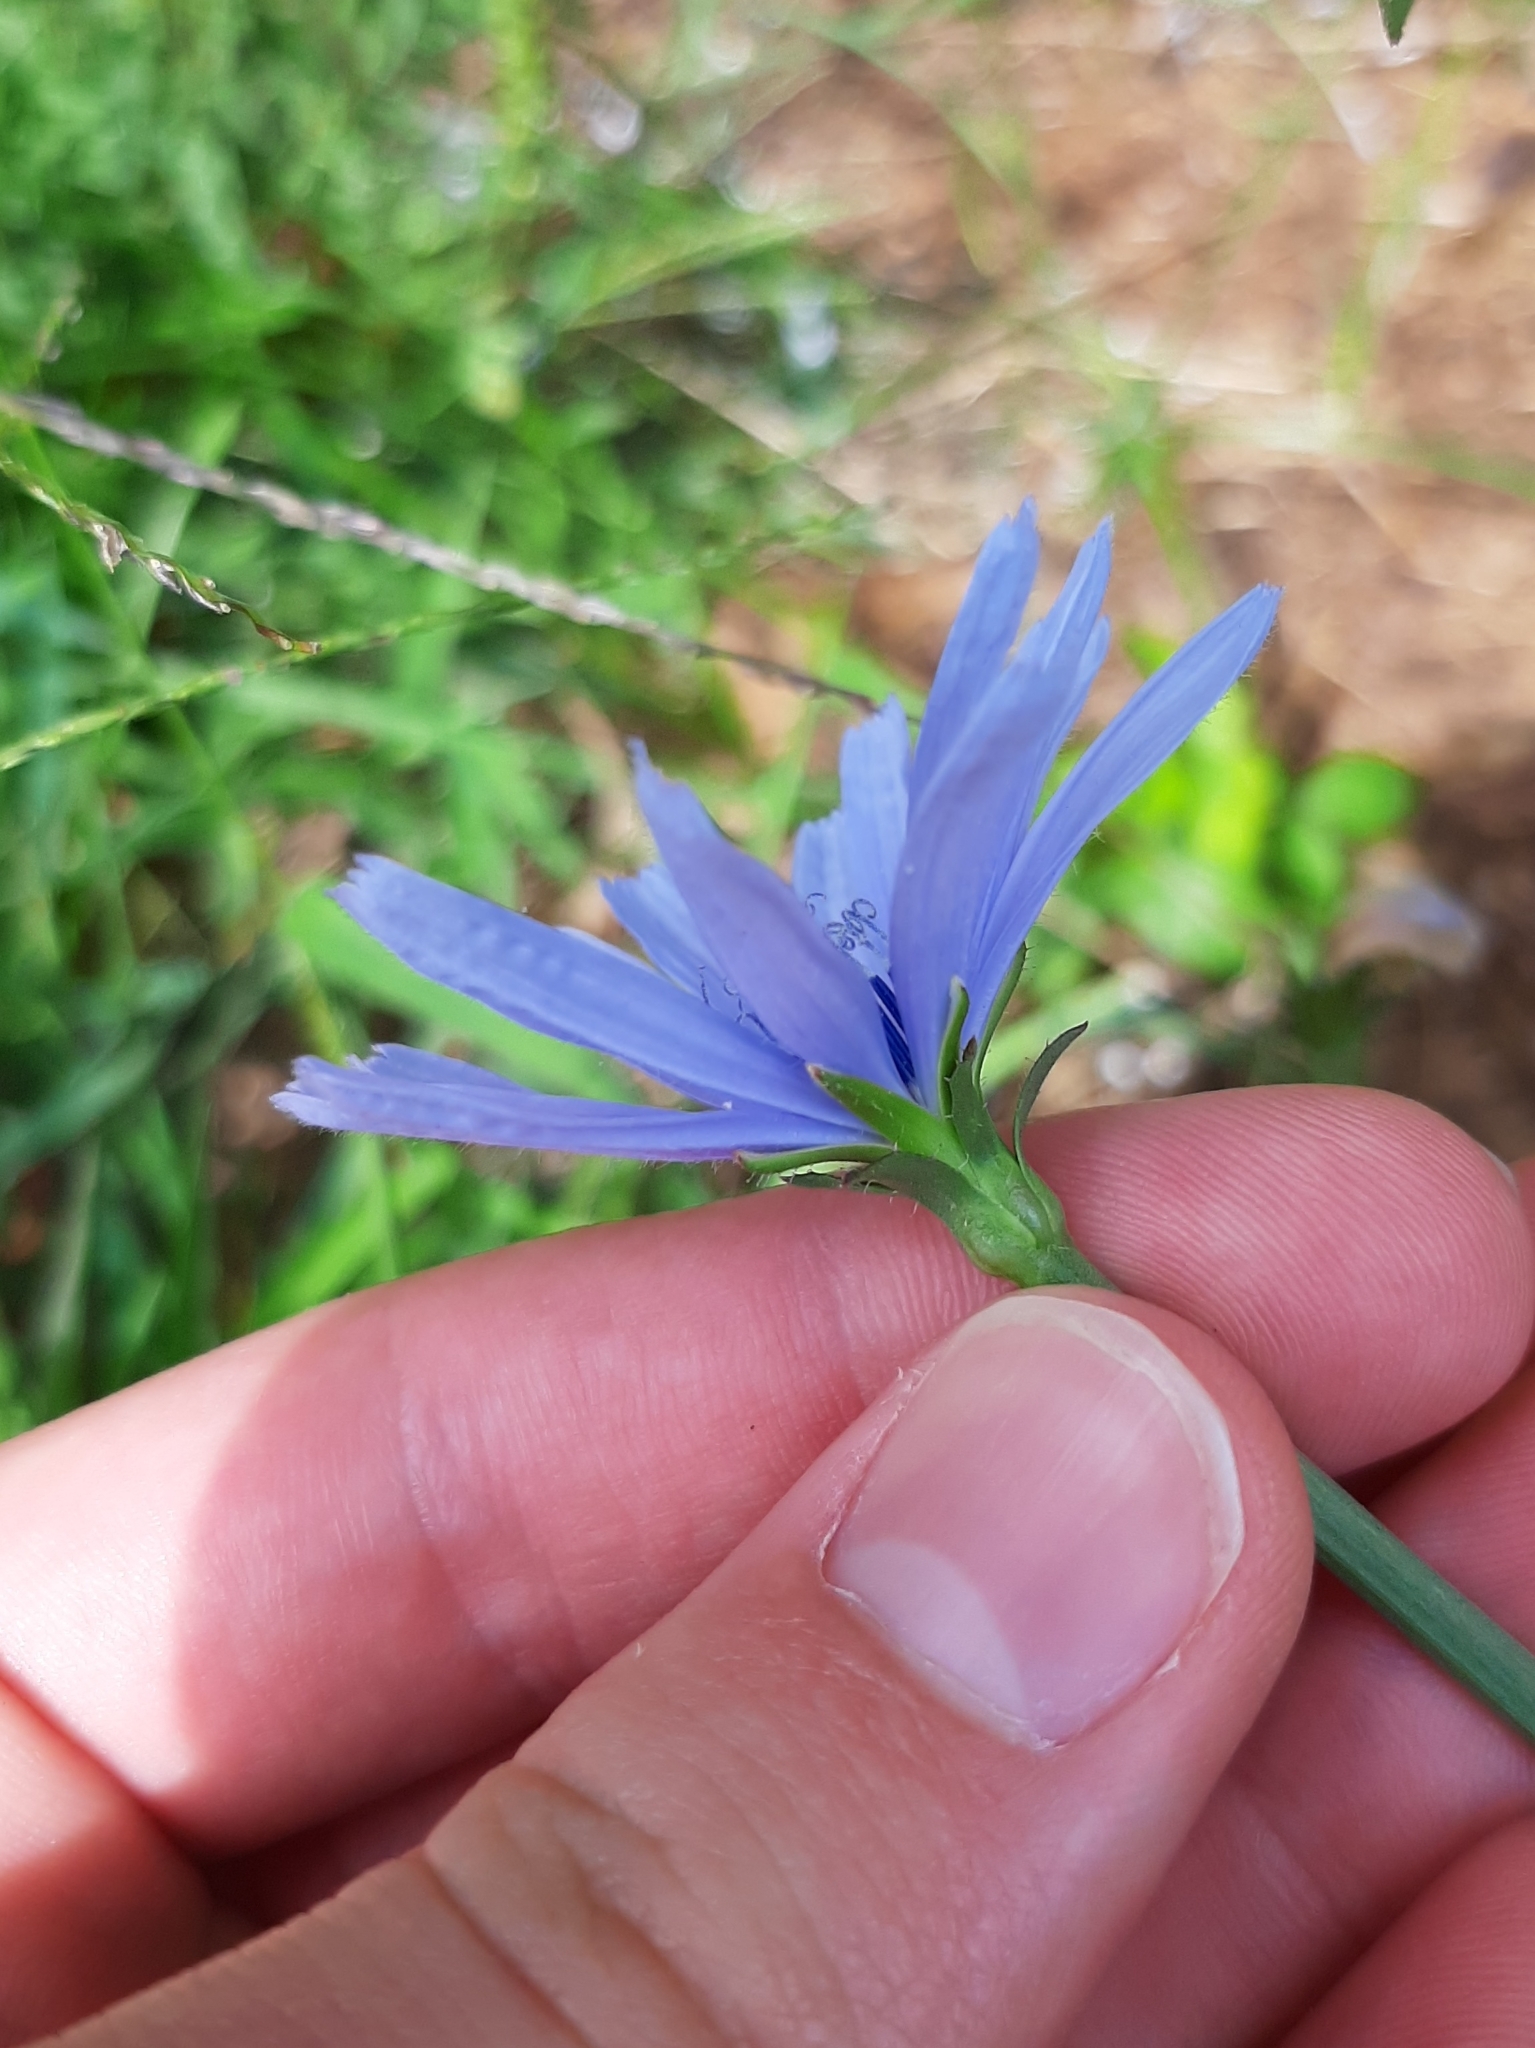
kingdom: Plantae
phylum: Tracheophyta
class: Magnoliopsida
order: Asterales
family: Asteraceae
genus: Cichorium
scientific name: Cichorium intybus
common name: Chicory
